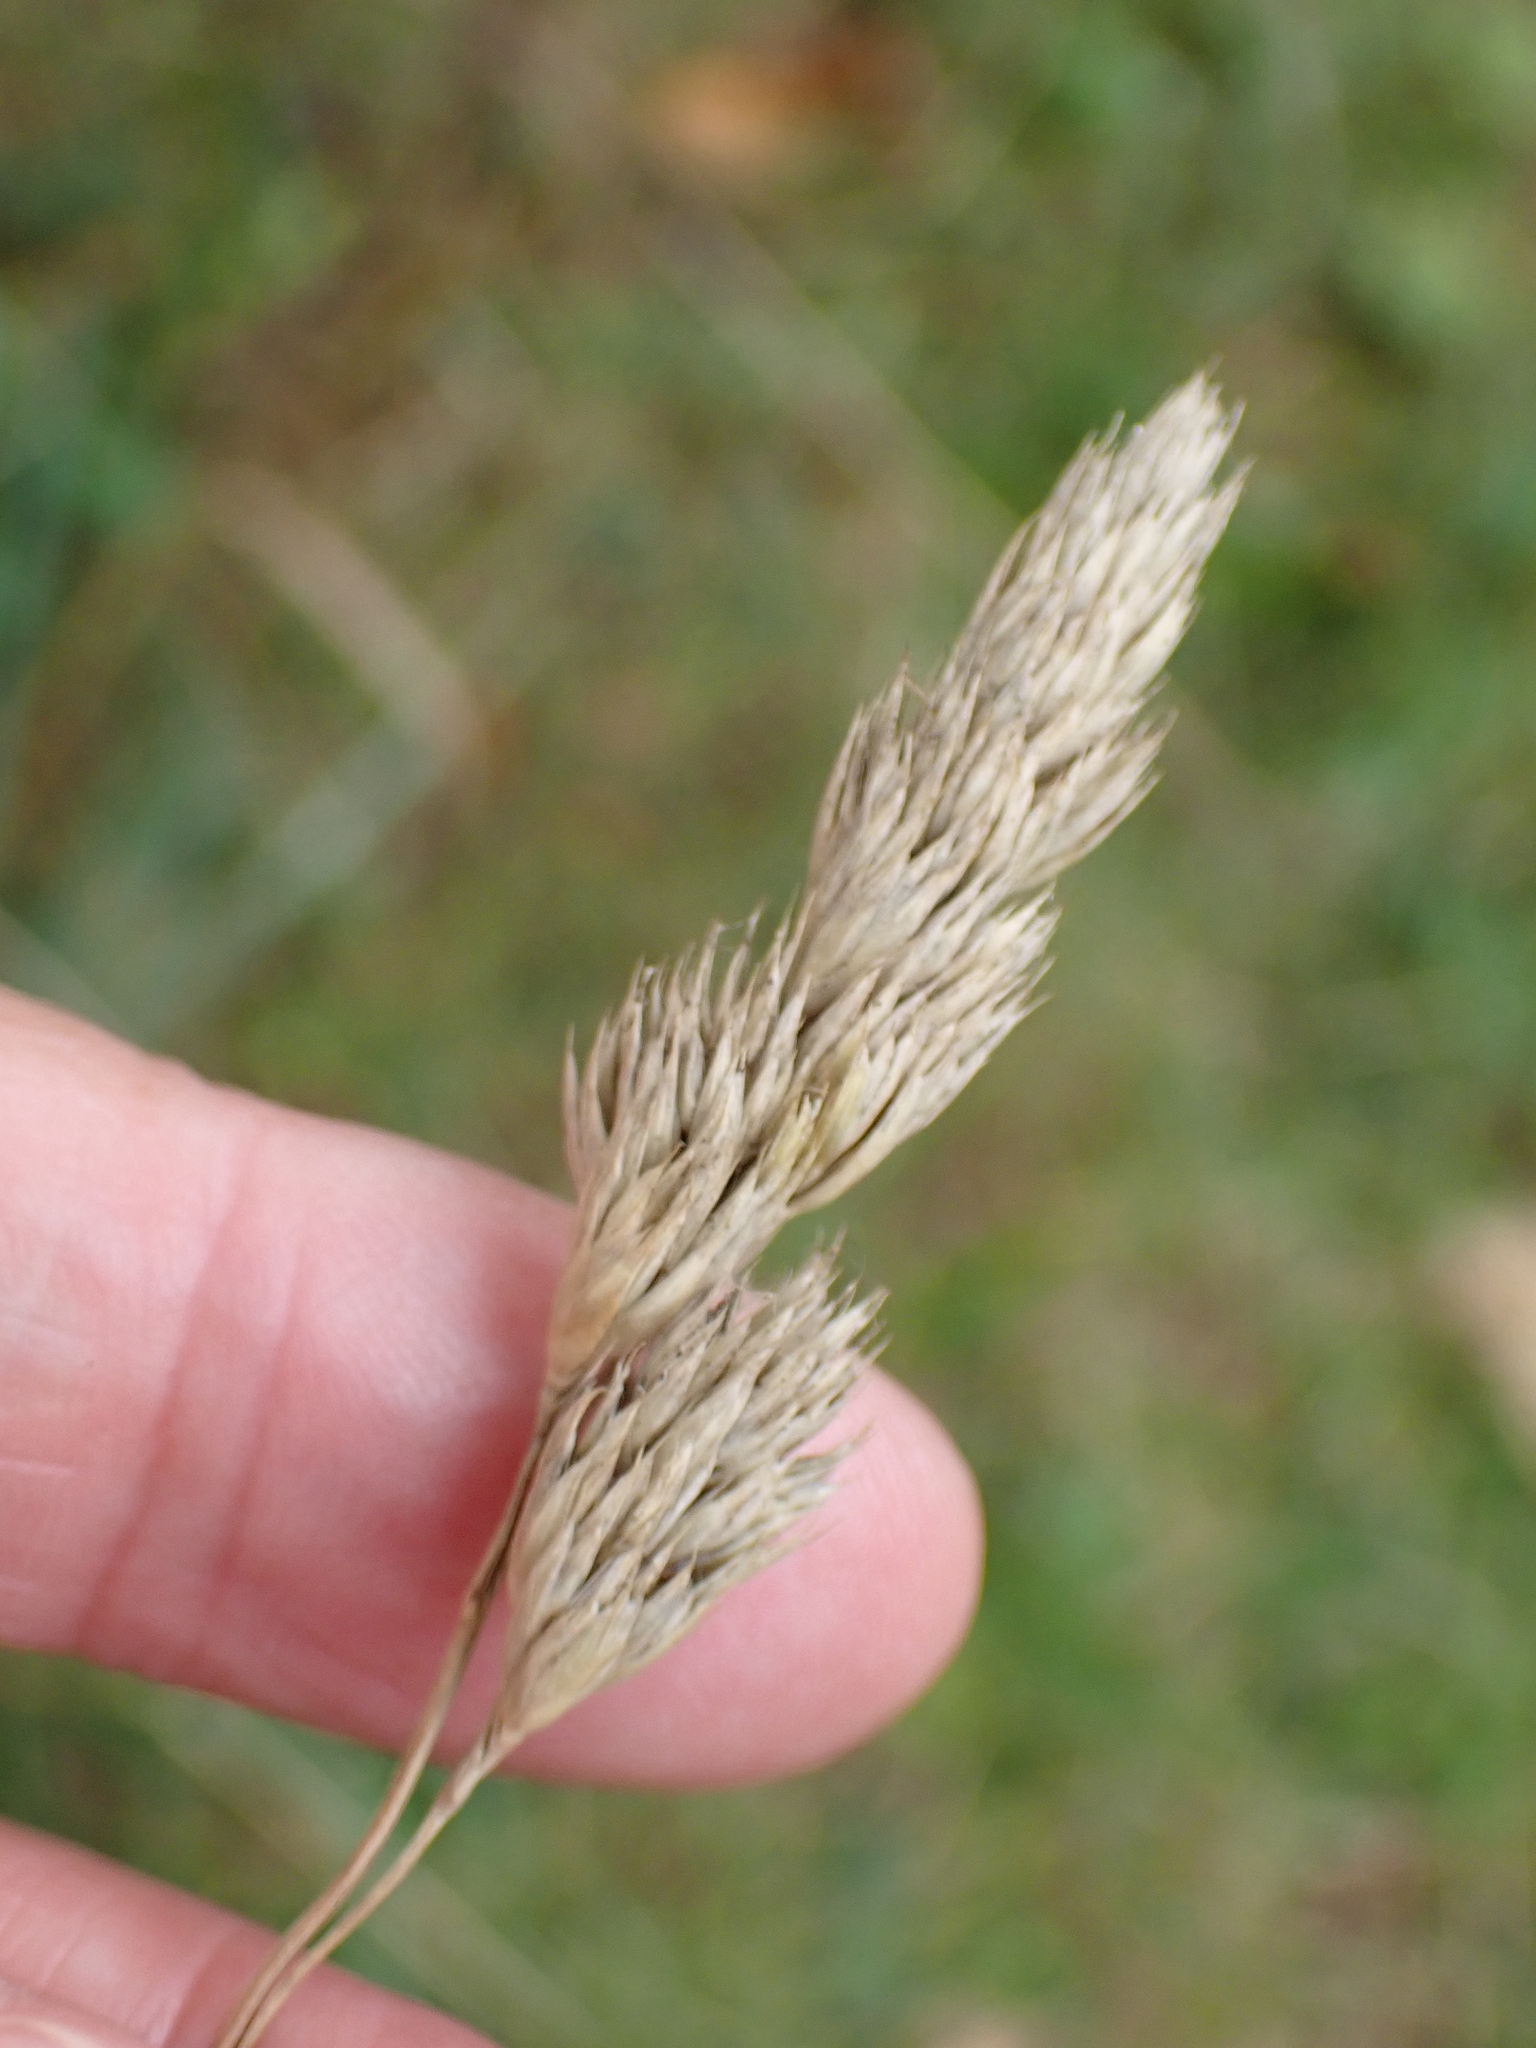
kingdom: Plantae
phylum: Tracheophyta
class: Liliopsida
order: Poales
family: Poaceae
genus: Dactylis
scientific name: Dactylis glomerata
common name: Orchardgrass
